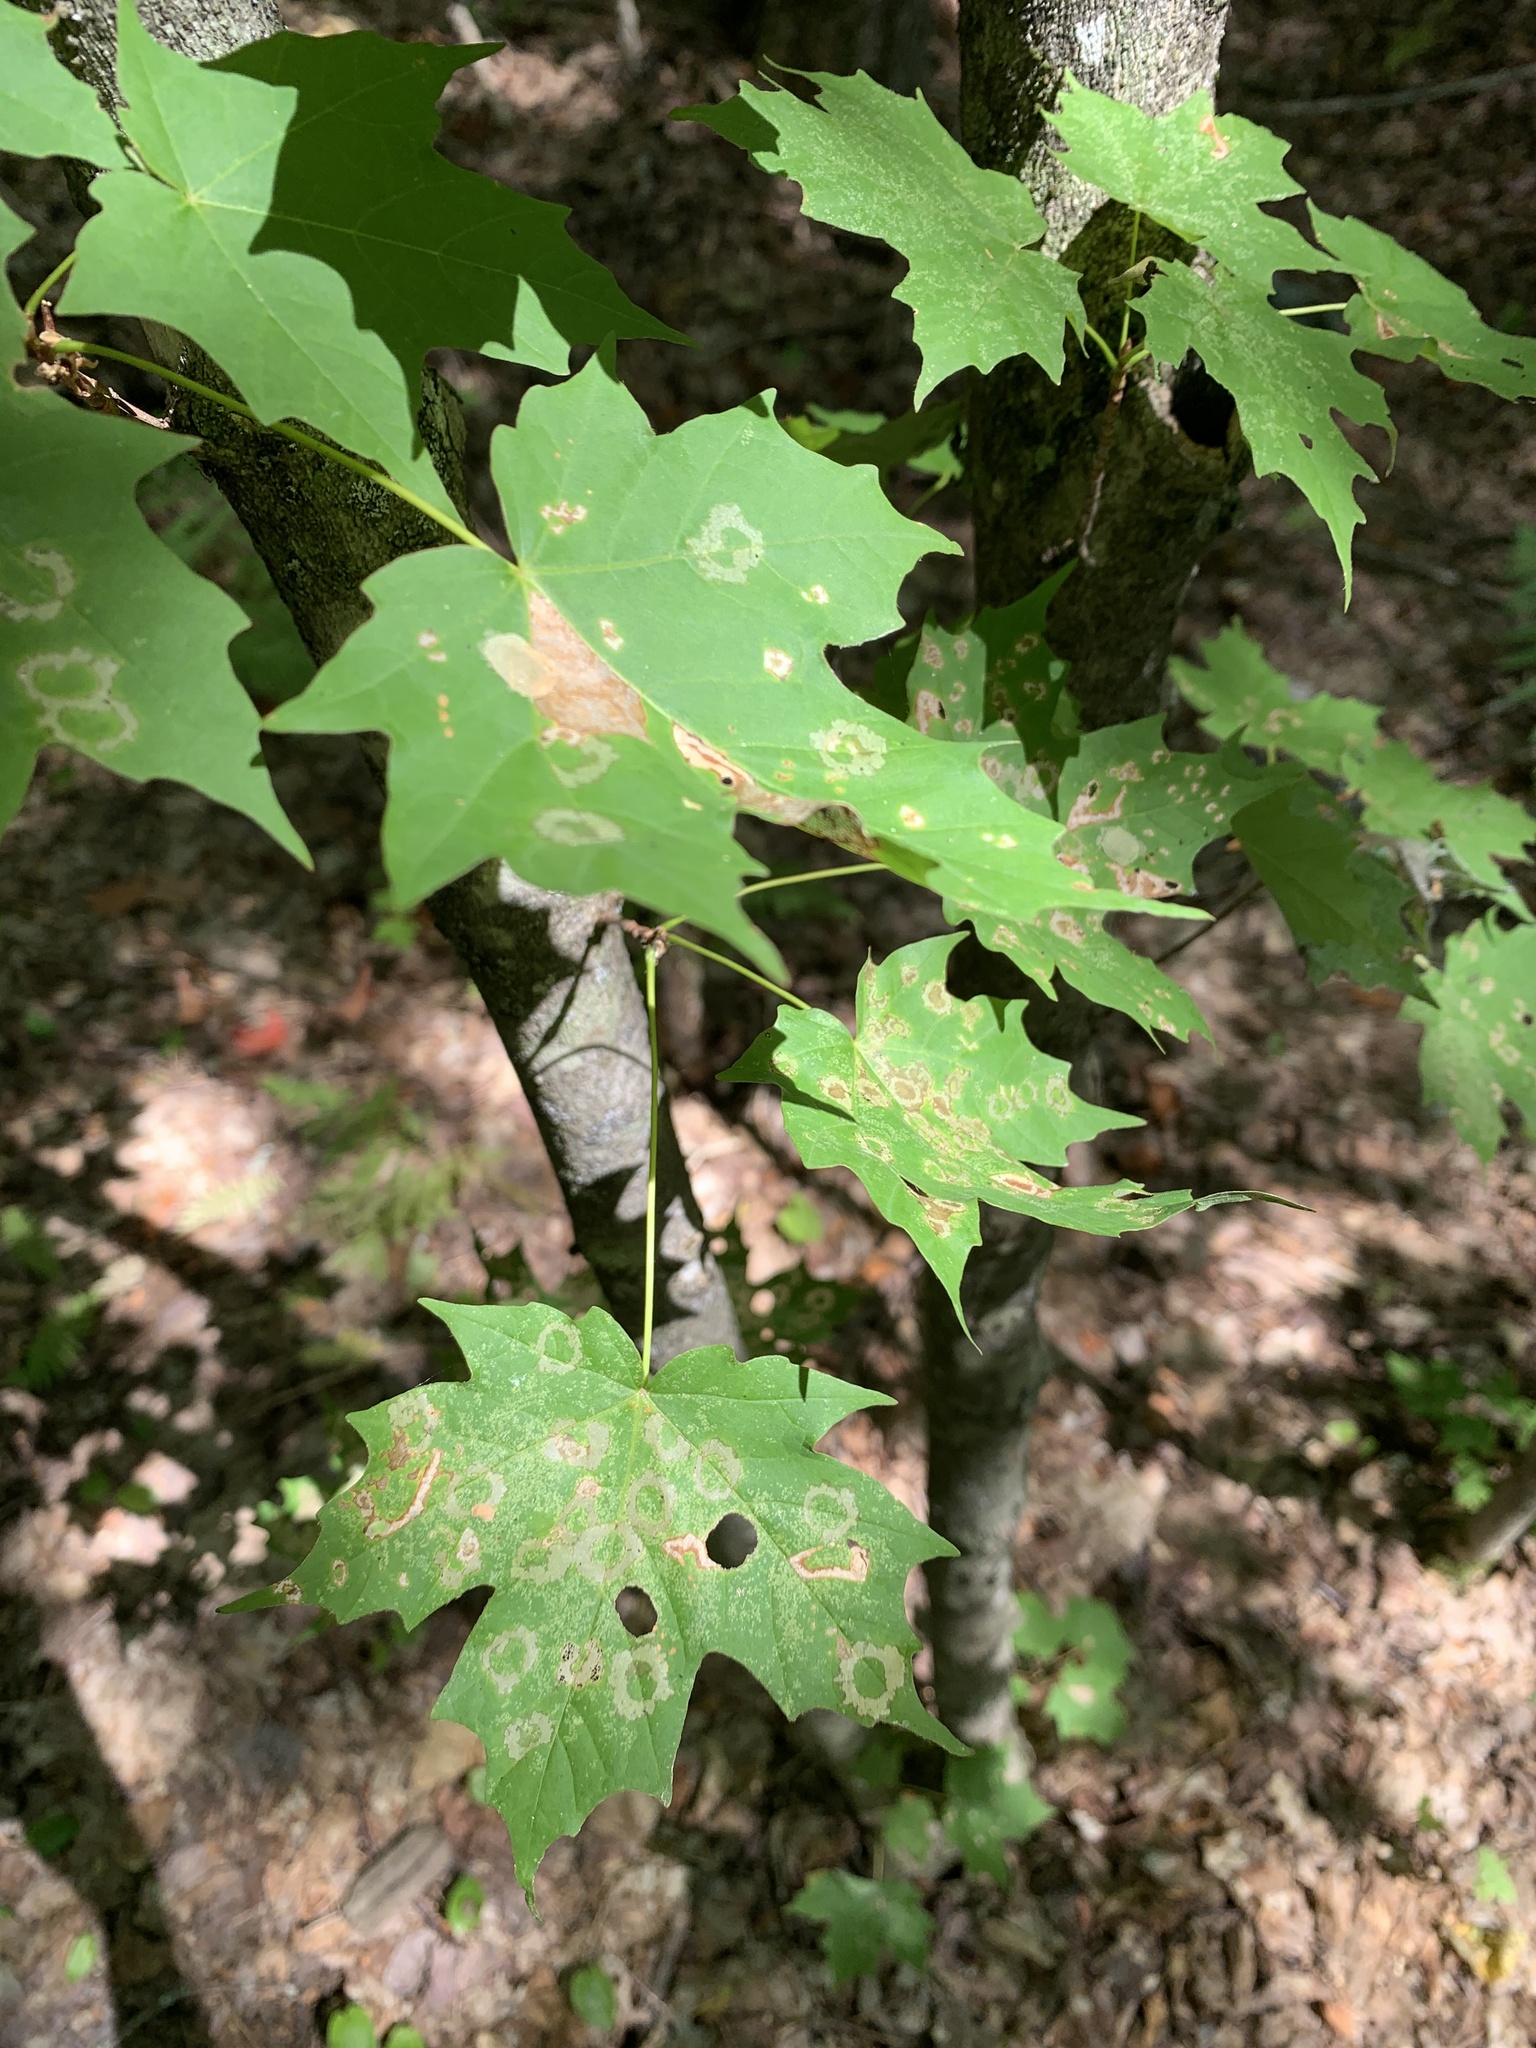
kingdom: Animalia
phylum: Arthropoda
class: Insecta
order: Lepidoptera
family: Incurvariidae
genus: Paraclemensia
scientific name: Paraclemensia acerifoliella
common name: Maple leafcutter
